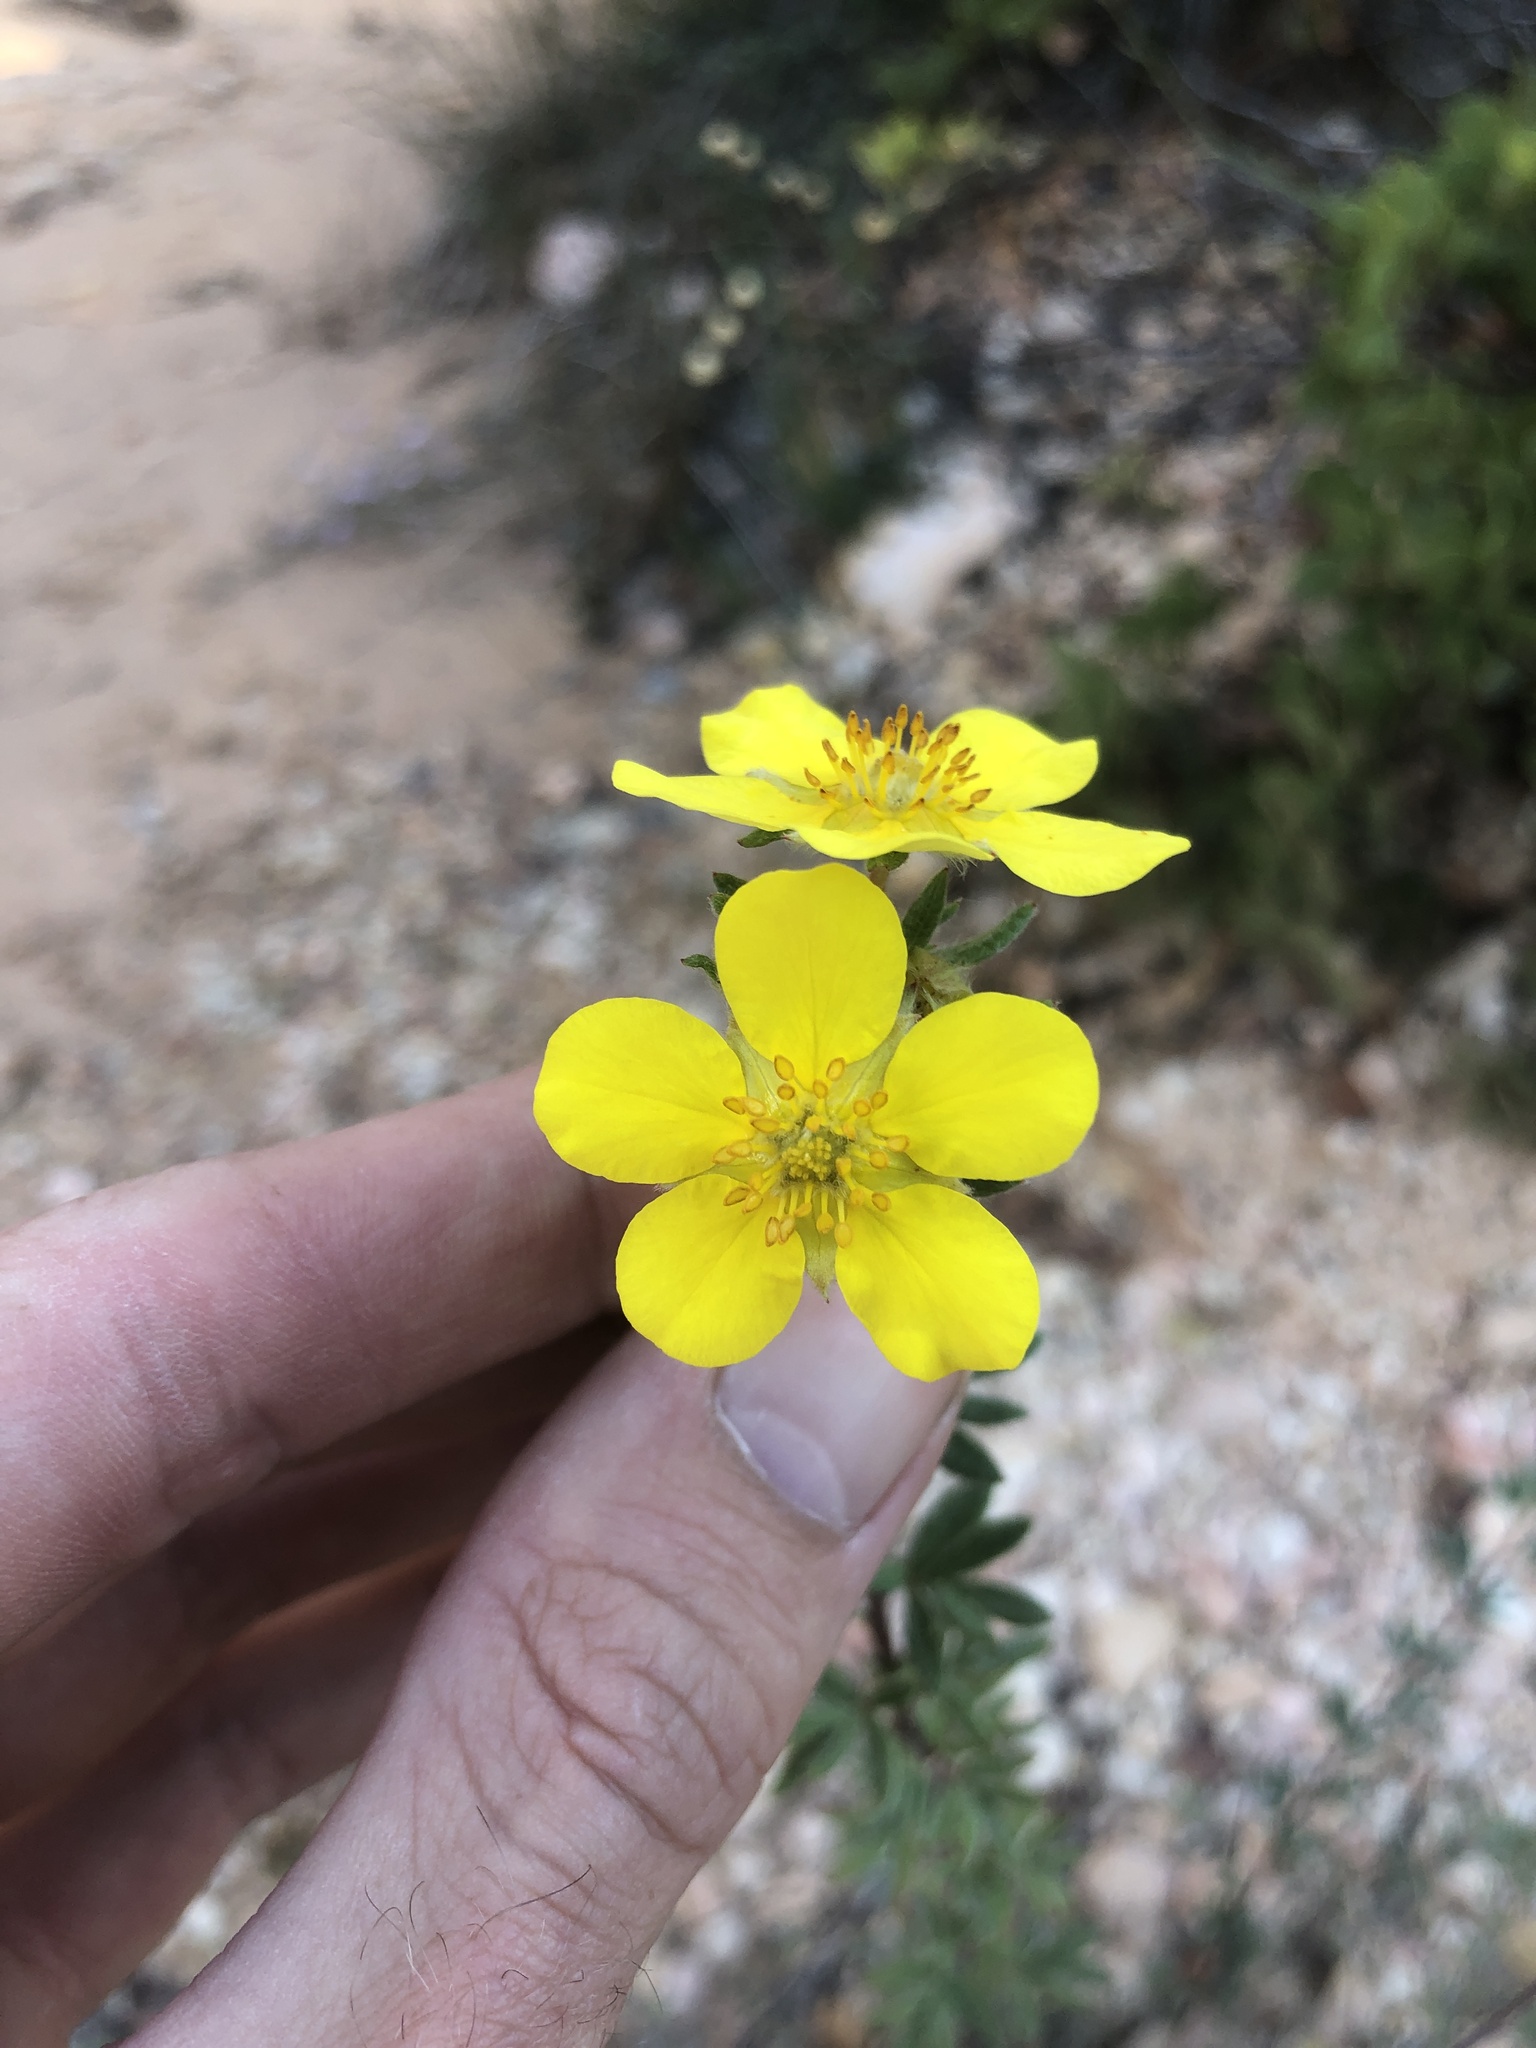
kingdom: Plantae
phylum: Tracheophyta
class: Magnoliopsida
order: Rosales
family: Rosaceae
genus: Dasiphora
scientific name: Dasiphora fruticosa
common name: Shrubby cinquefoil
